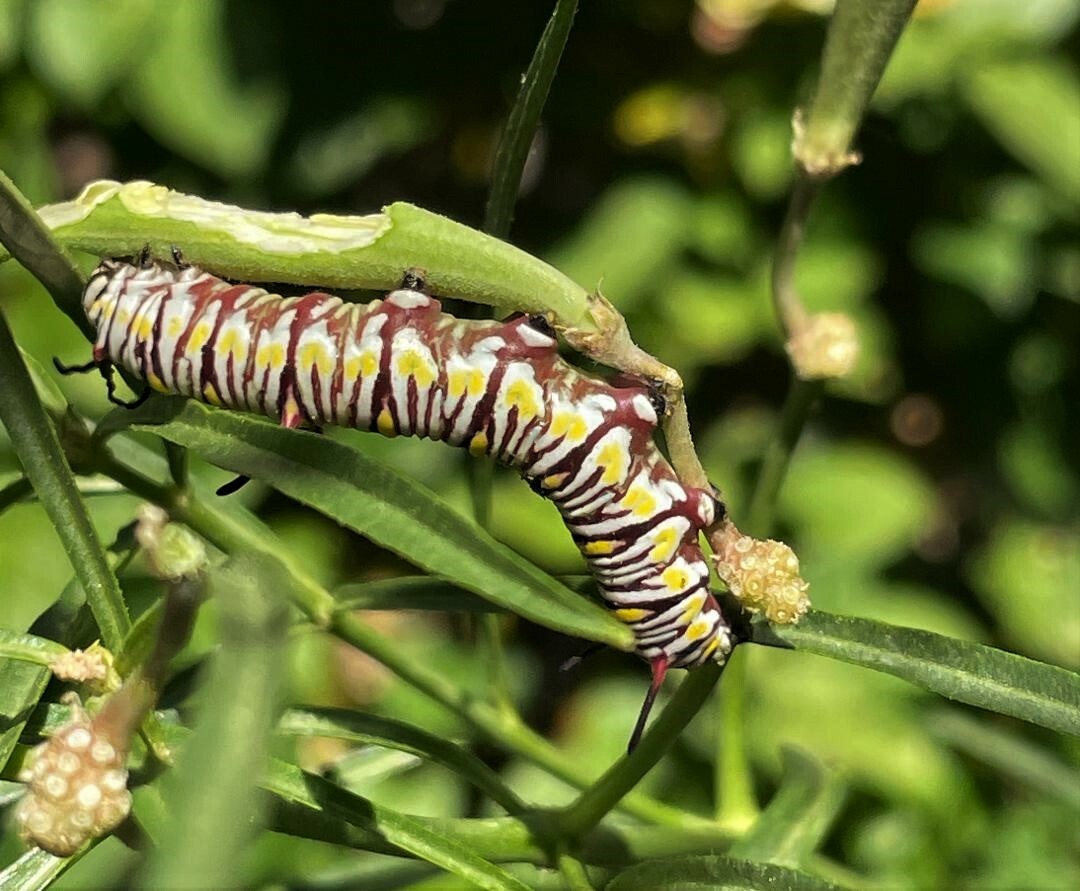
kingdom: Animalia
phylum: Arthropoda
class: Insecta
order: Lepidoptera
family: Nymphalidae
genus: Danaus
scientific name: Danaus gilippus
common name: Queen
